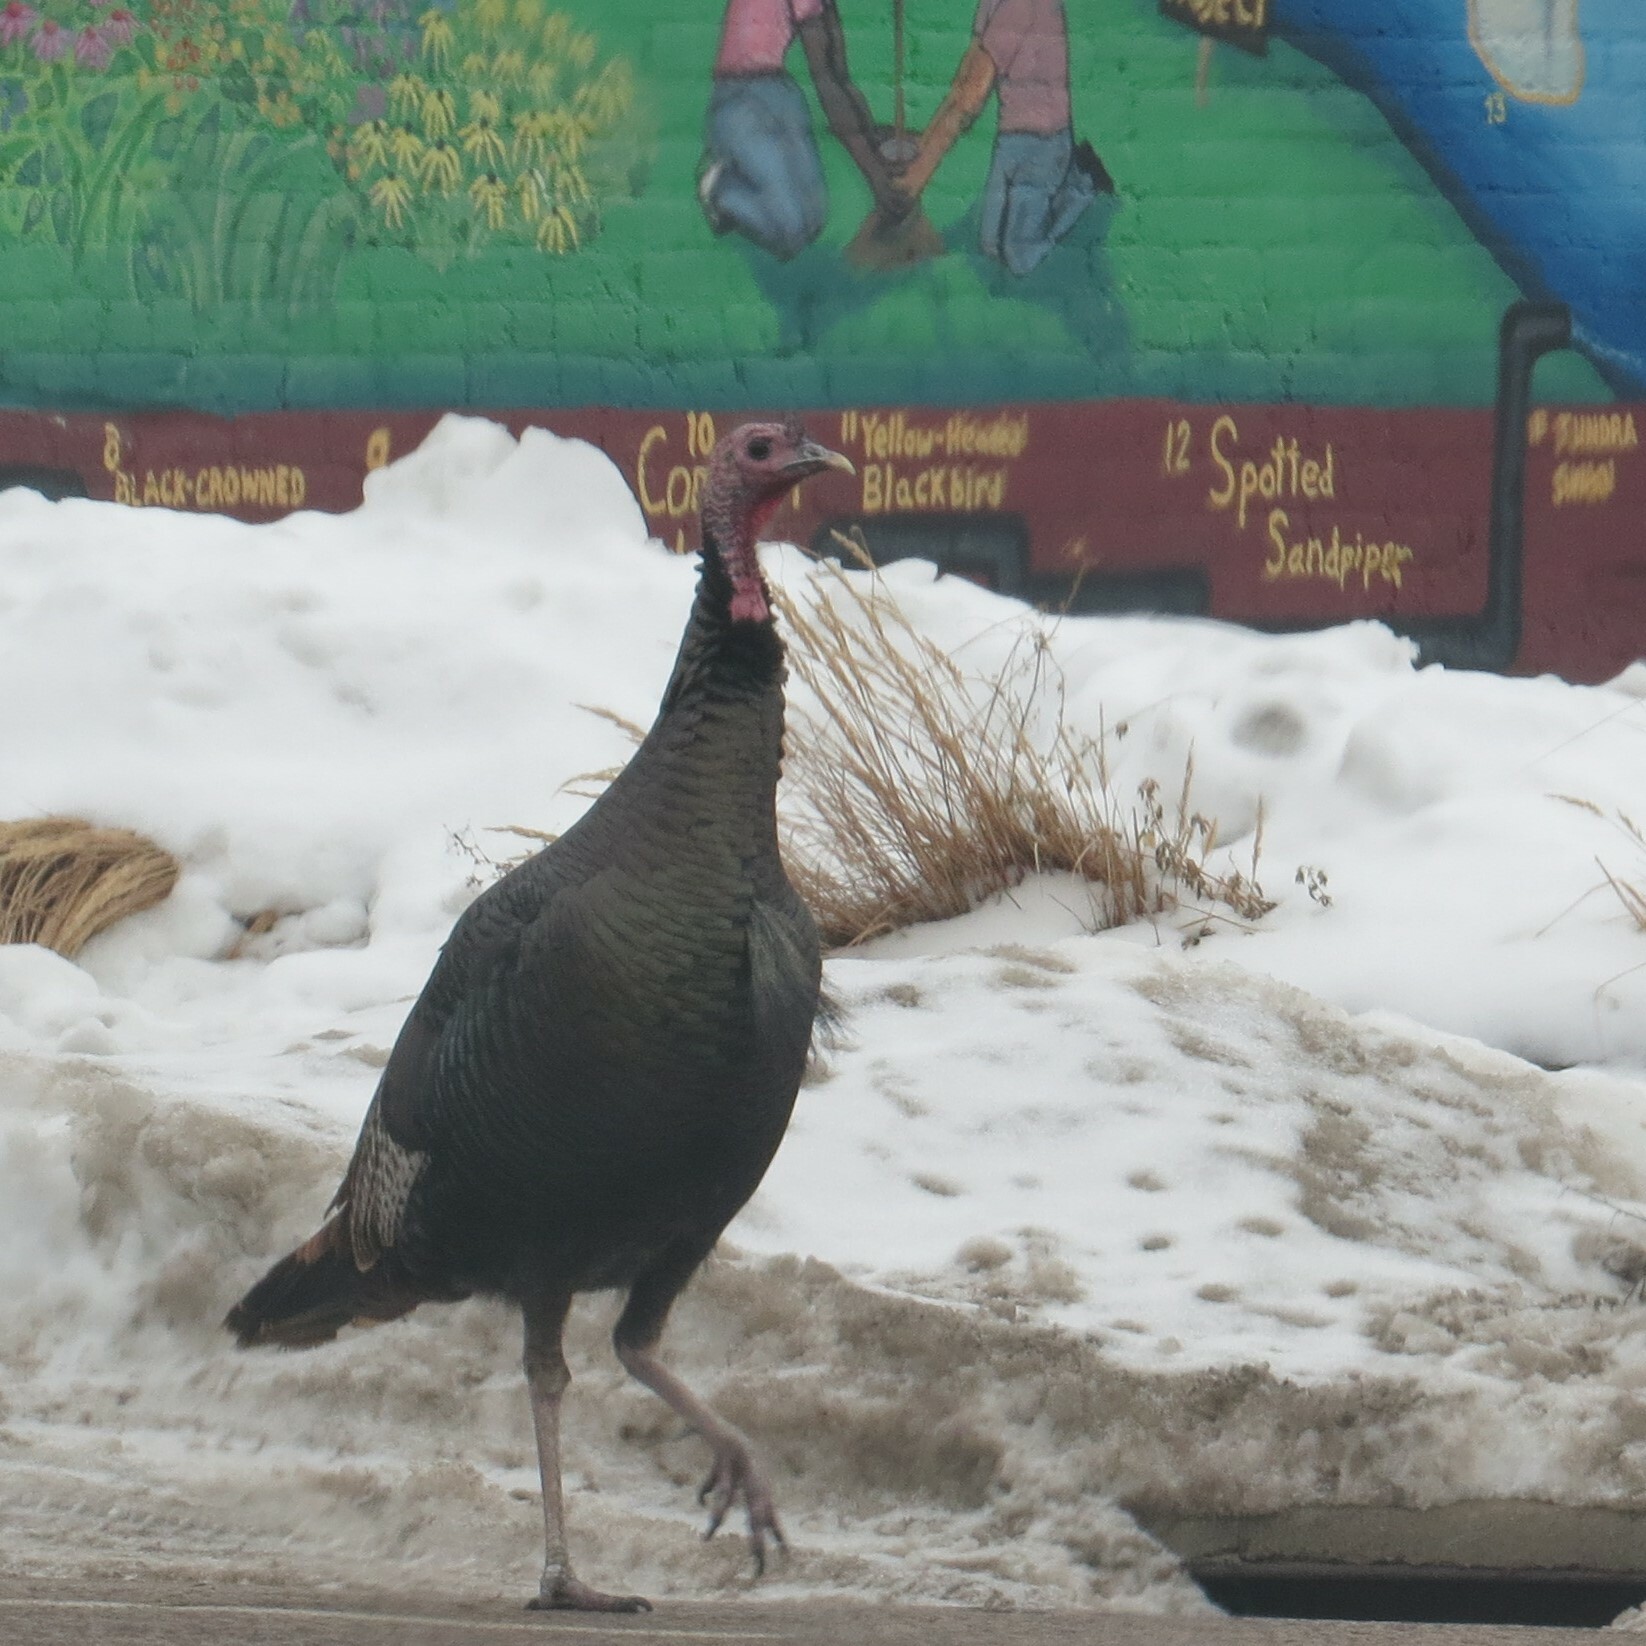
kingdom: Animalia
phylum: Chordata
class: Aves
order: Galliformes
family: Phasianidae
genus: Meleagris
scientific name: Meleagris gallopavo
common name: Wild turkey
